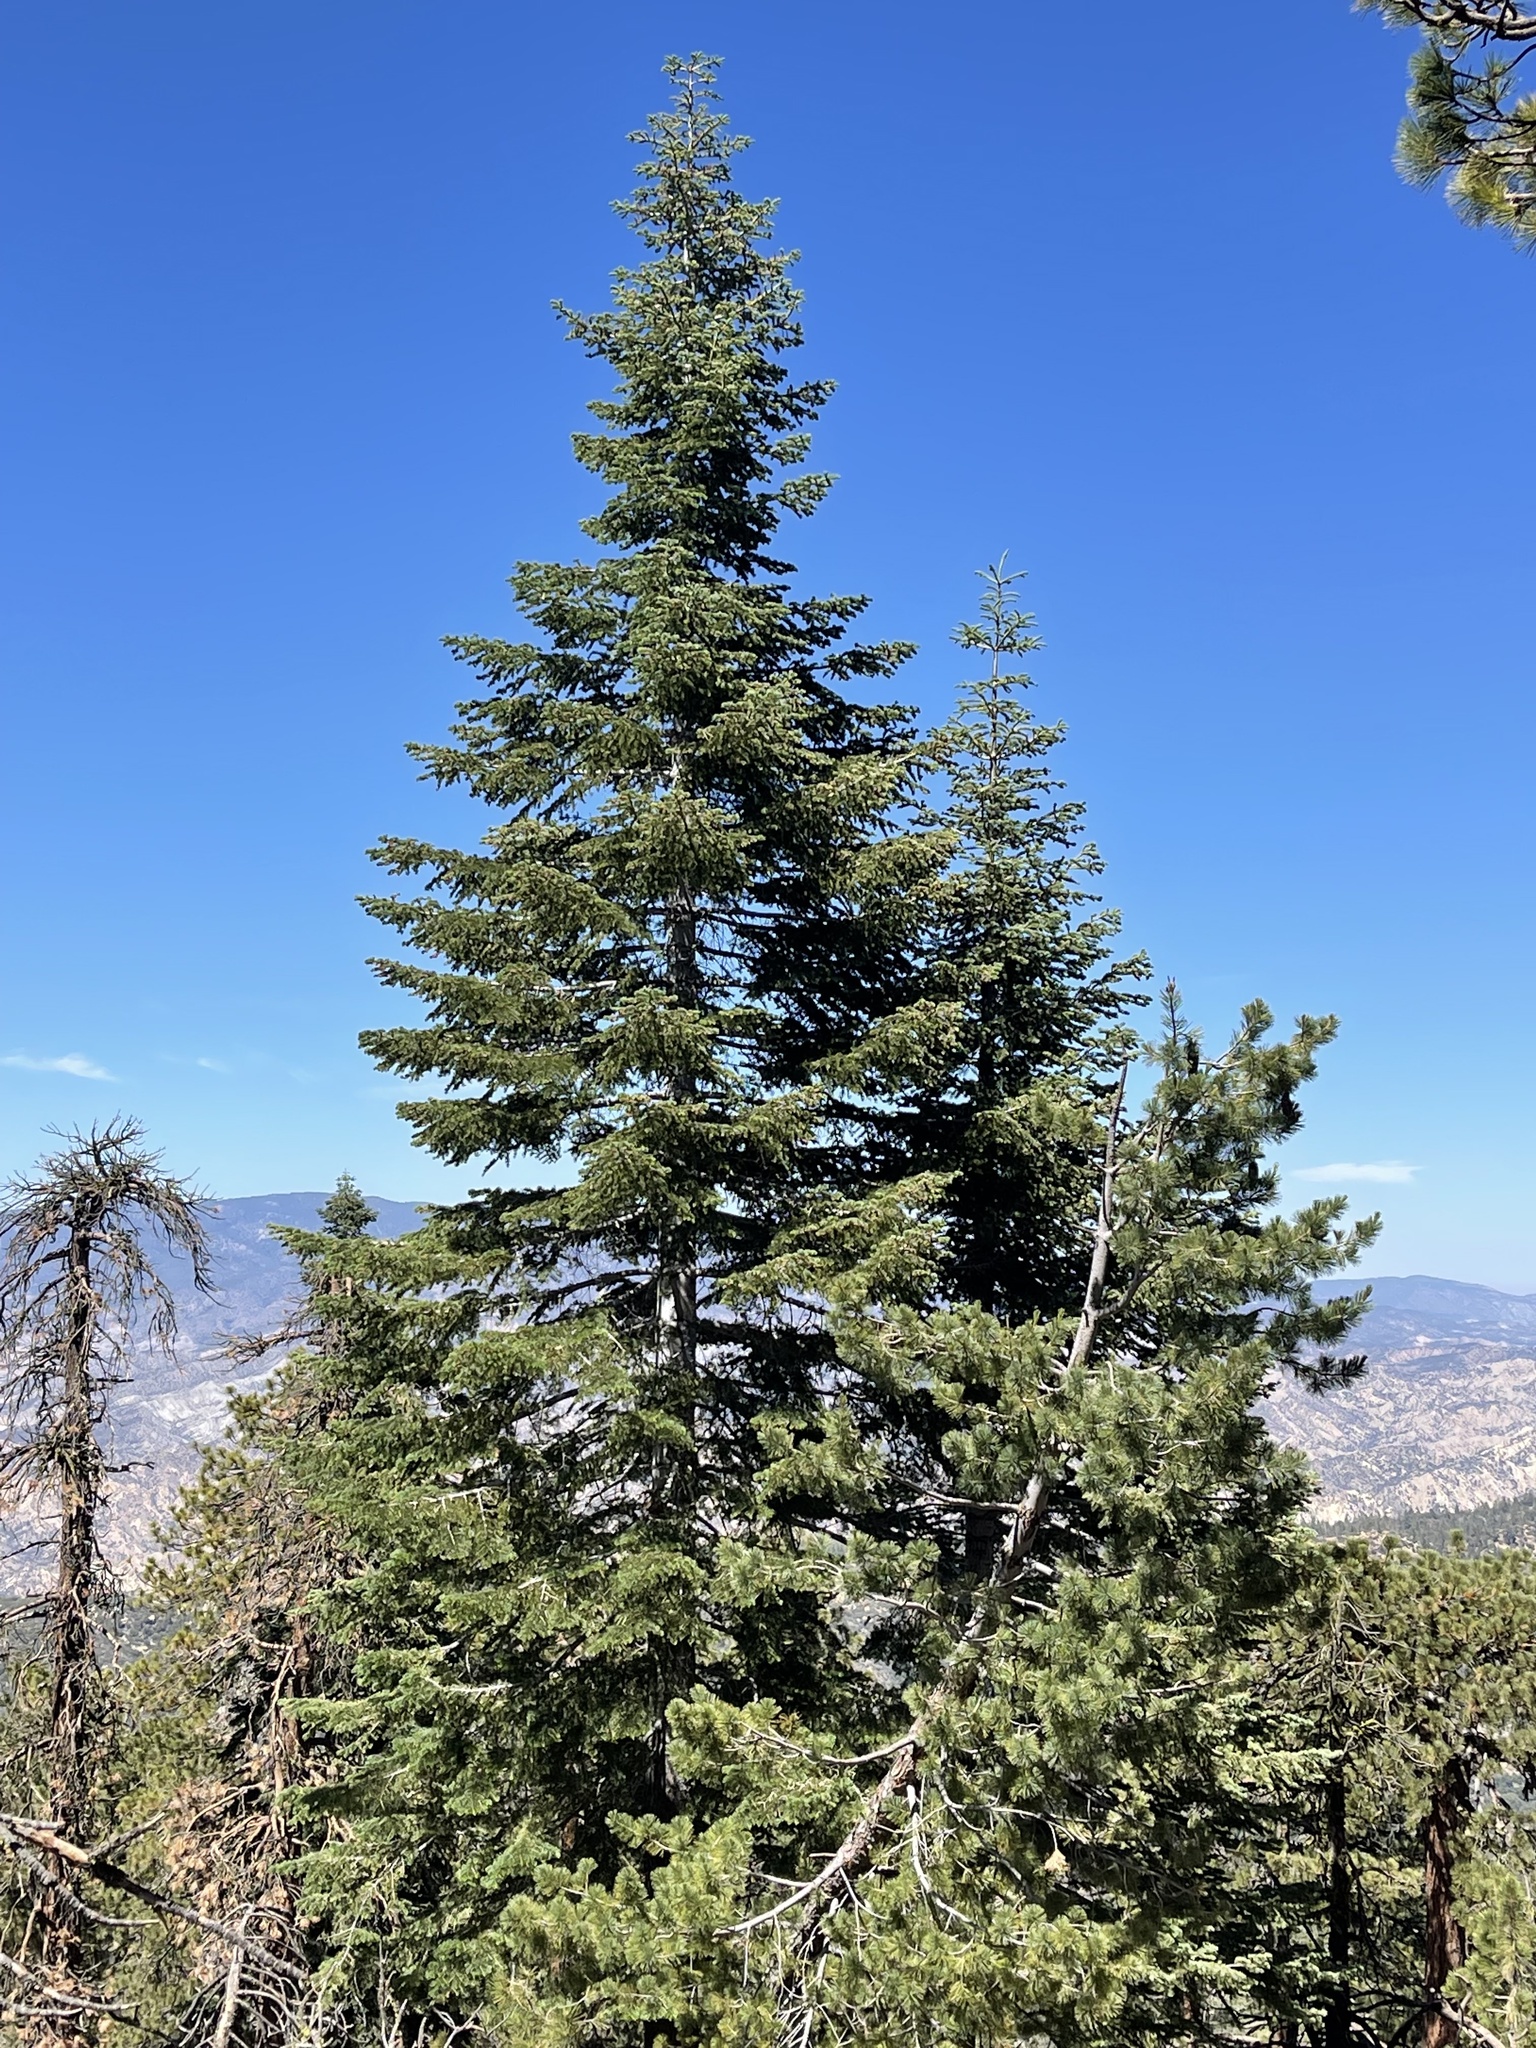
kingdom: Plantae
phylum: Tracheophyta
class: Pinopsida
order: Pinales
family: Pinaceae
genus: Abies
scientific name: Abies concolor
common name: Colorado fir
